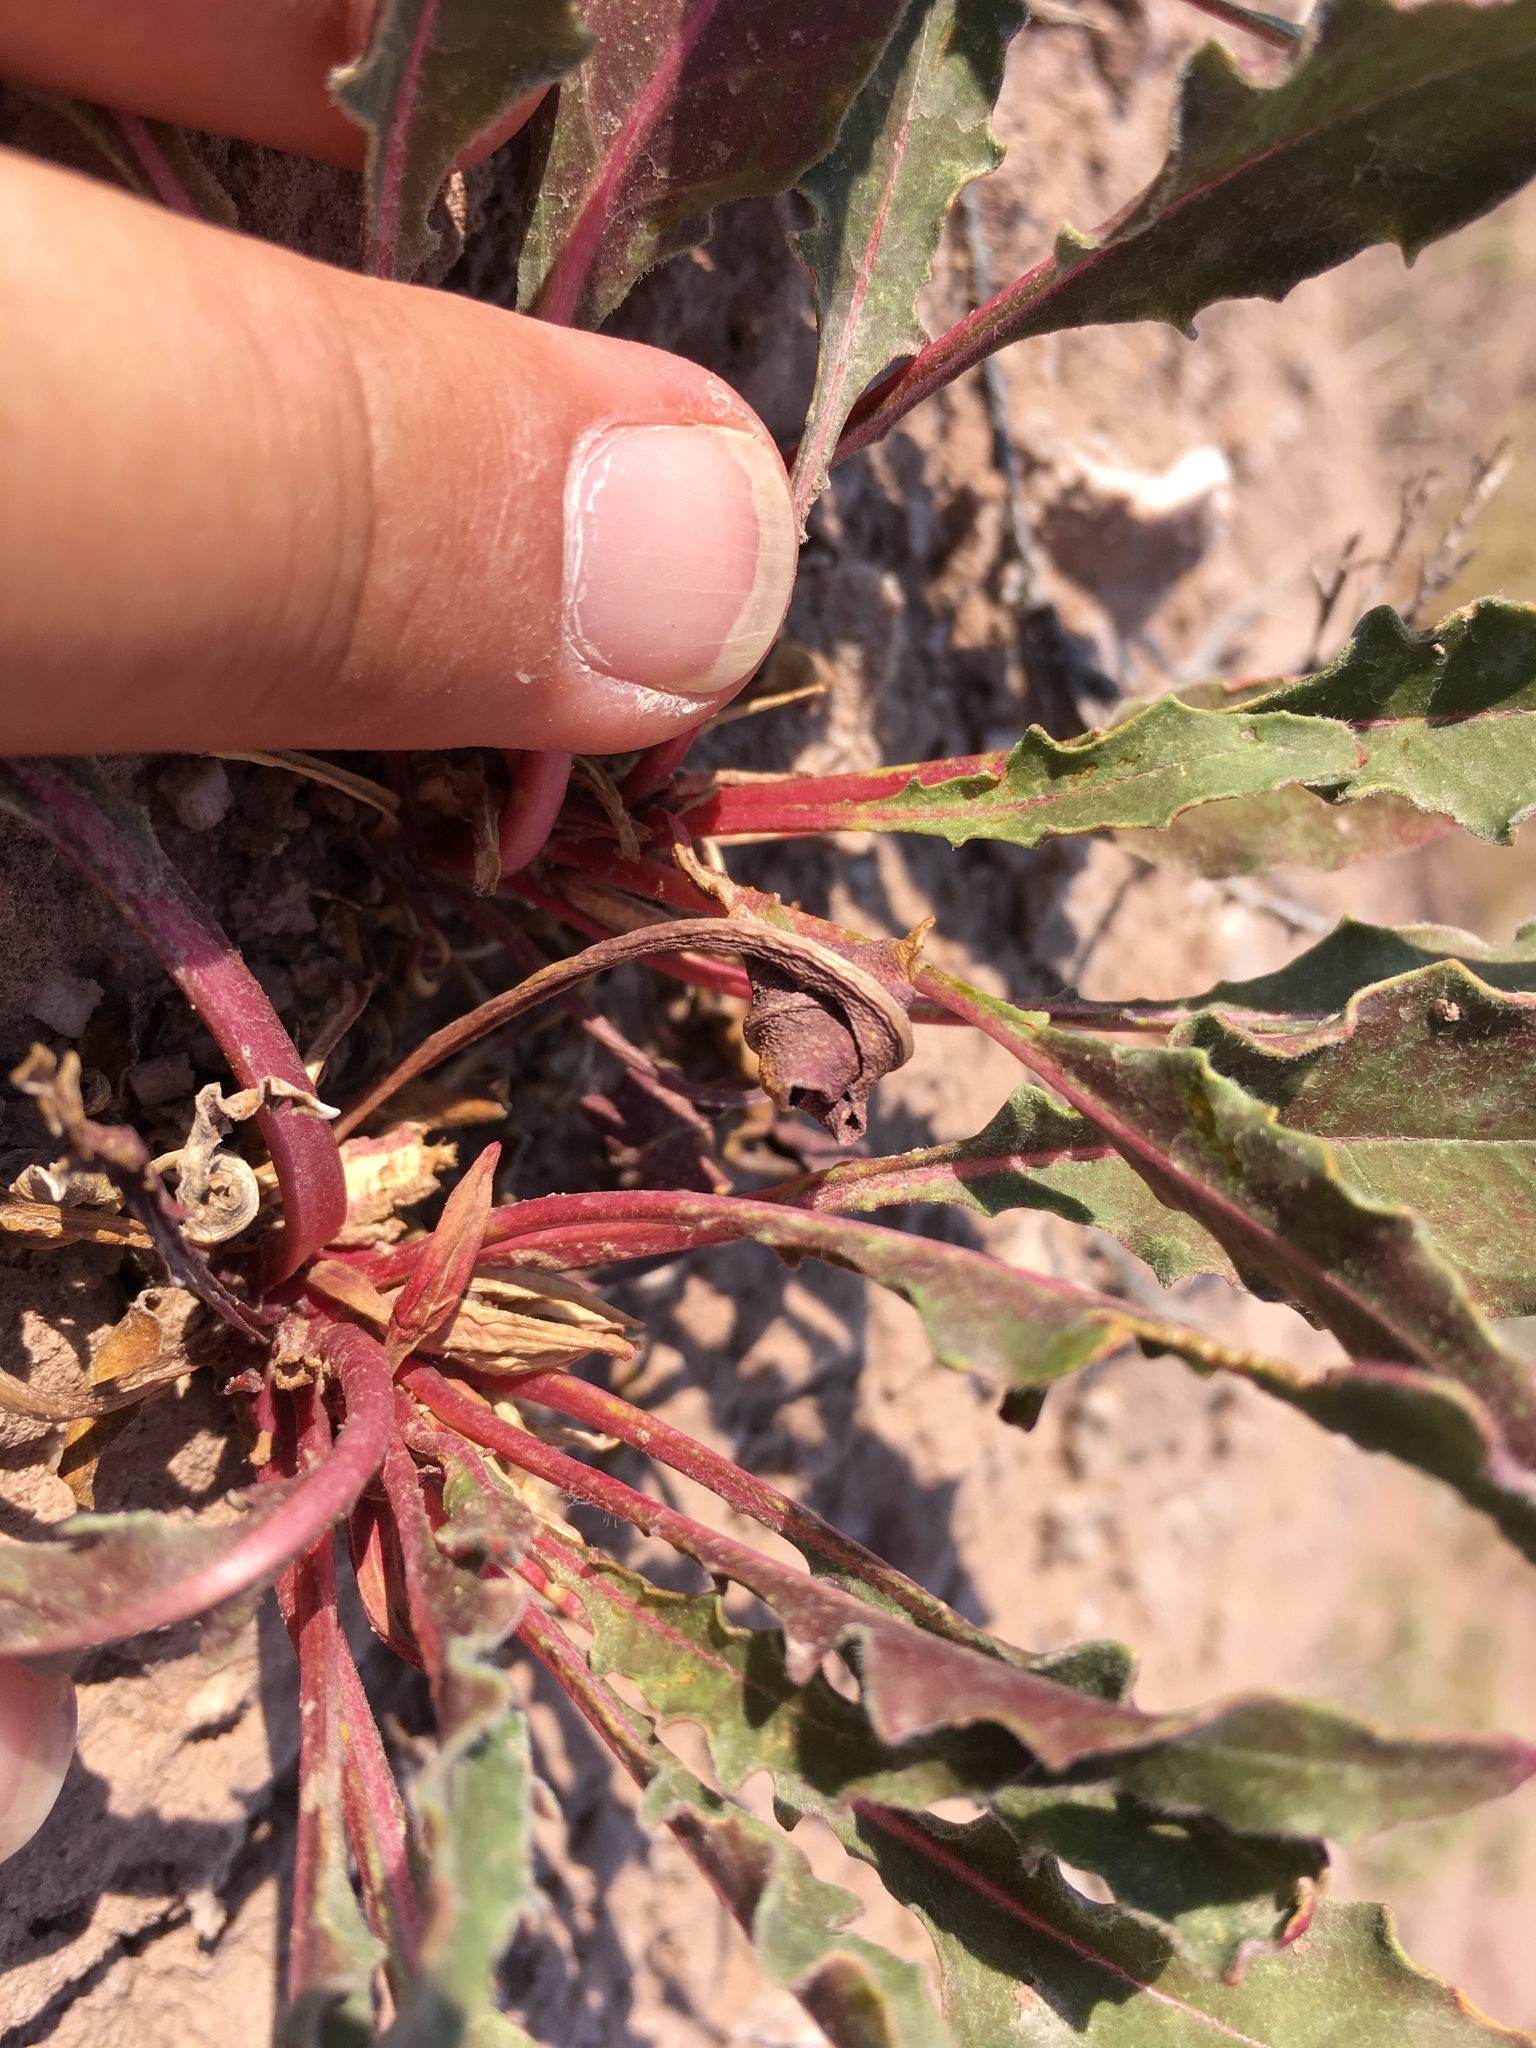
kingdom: Plantae
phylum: Tracheophyta
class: Magnoliopsida
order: Myrtales
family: Onagraceae
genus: Oenothera
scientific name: Oenothera cespitosa
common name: Tufted evening-primrose
